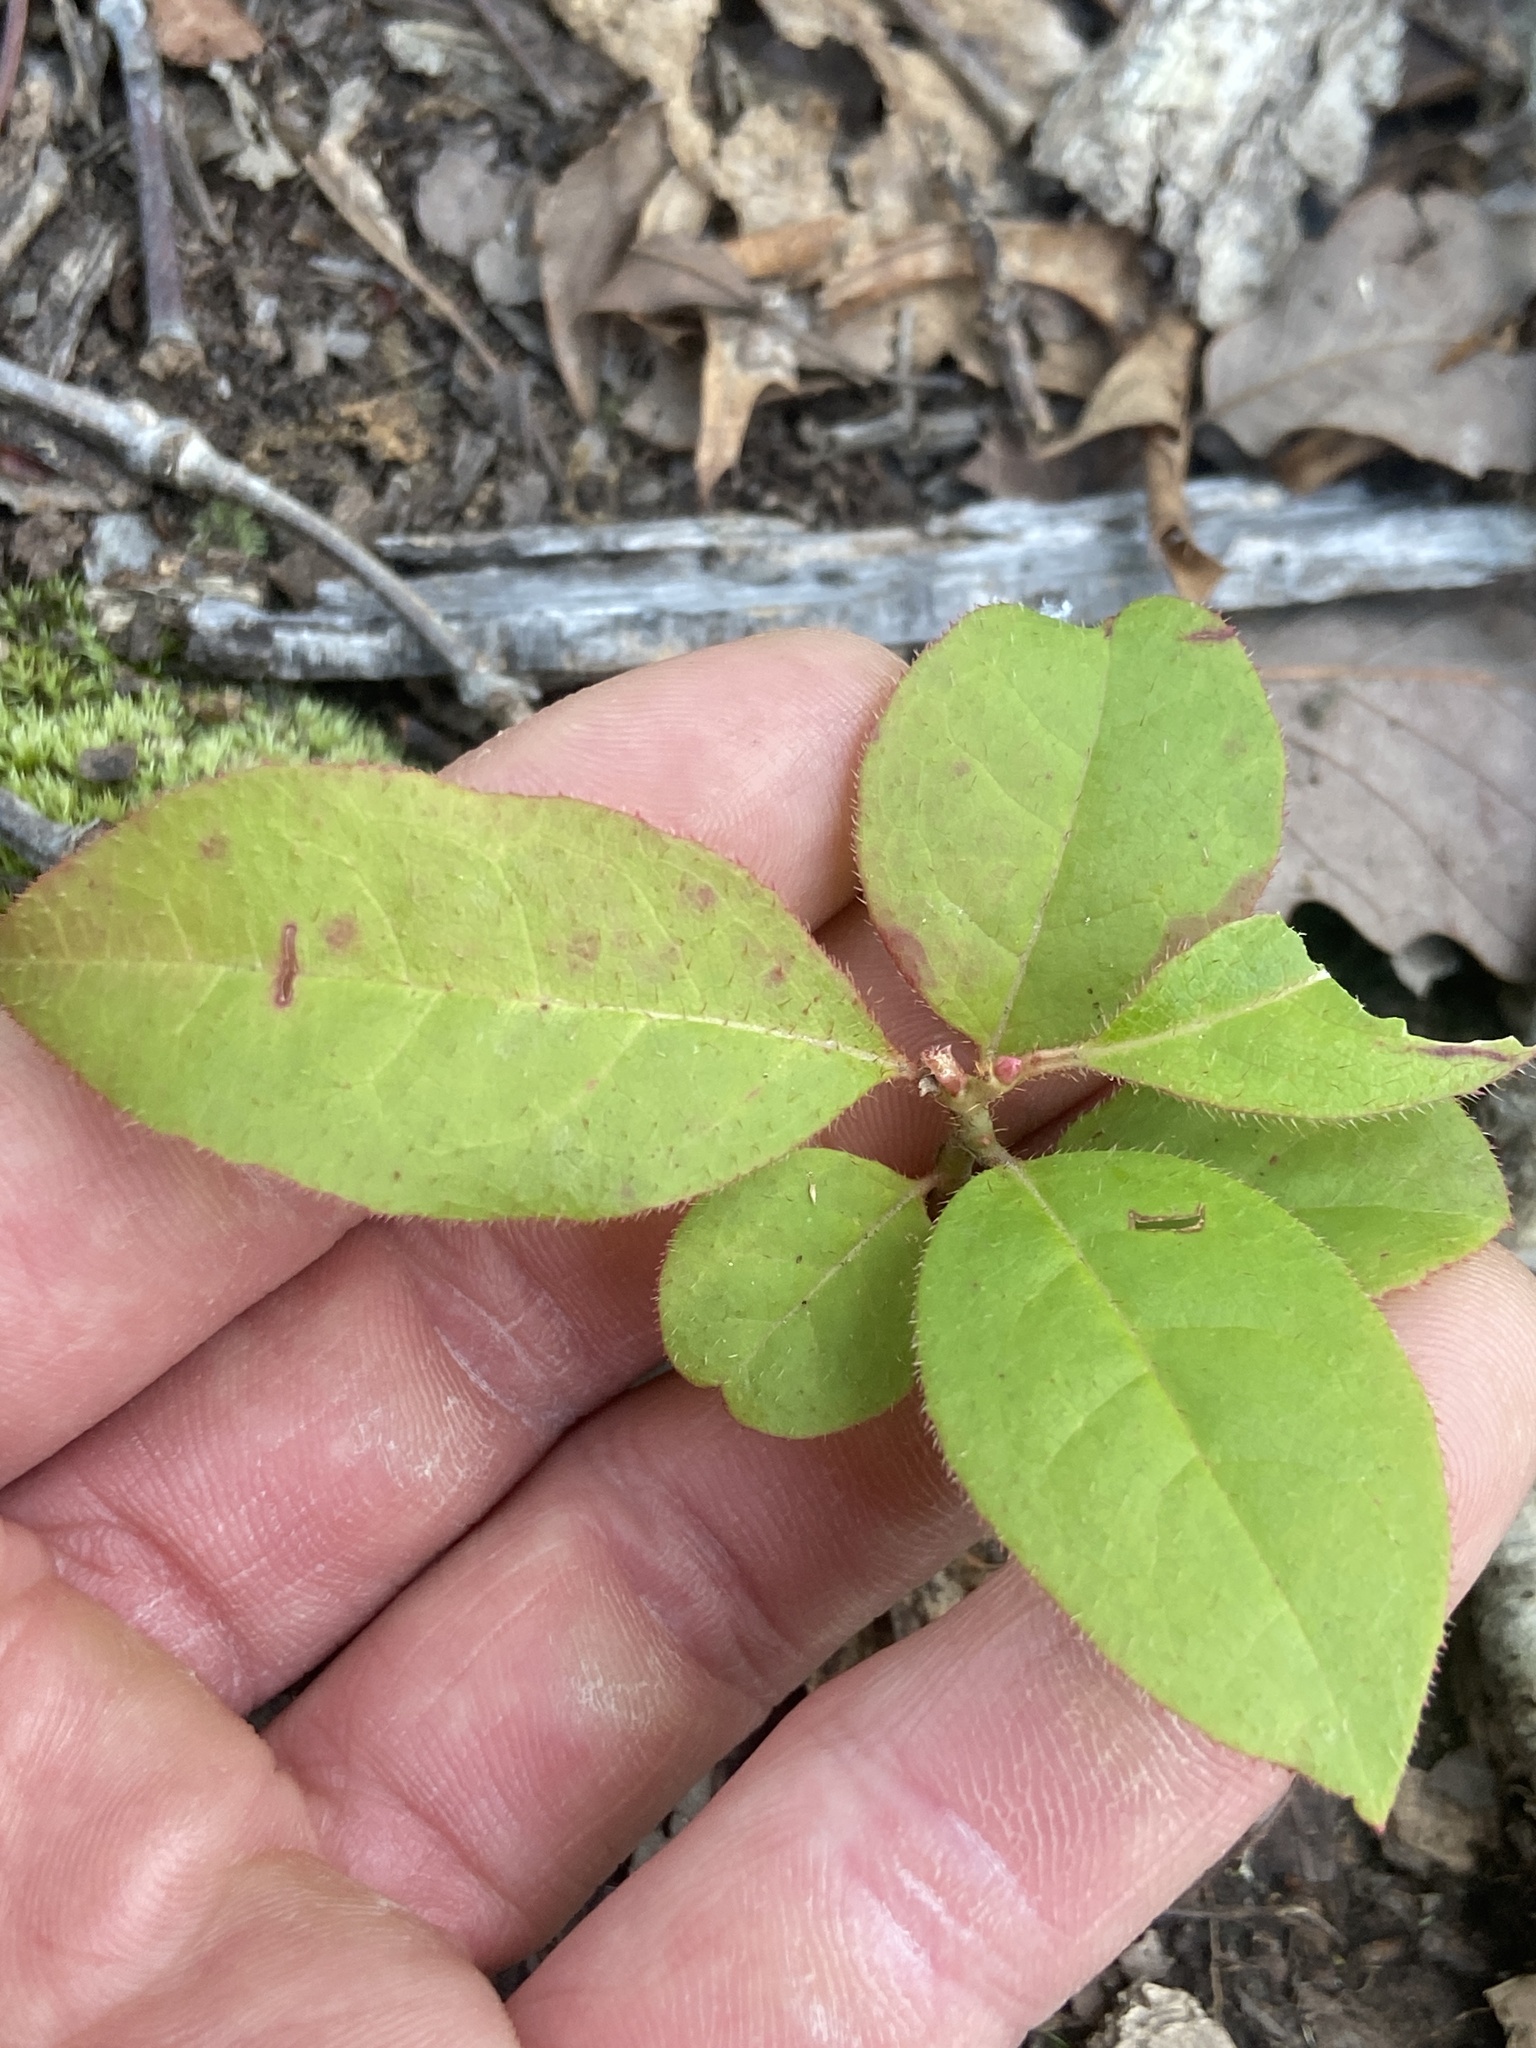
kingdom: Plantae
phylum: Tracheophyta
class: Magnoliopsida
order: Ericales
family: Ericaceae
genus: Oxydendrum
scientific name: Oxydendrum arboreum
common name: Sourwood
